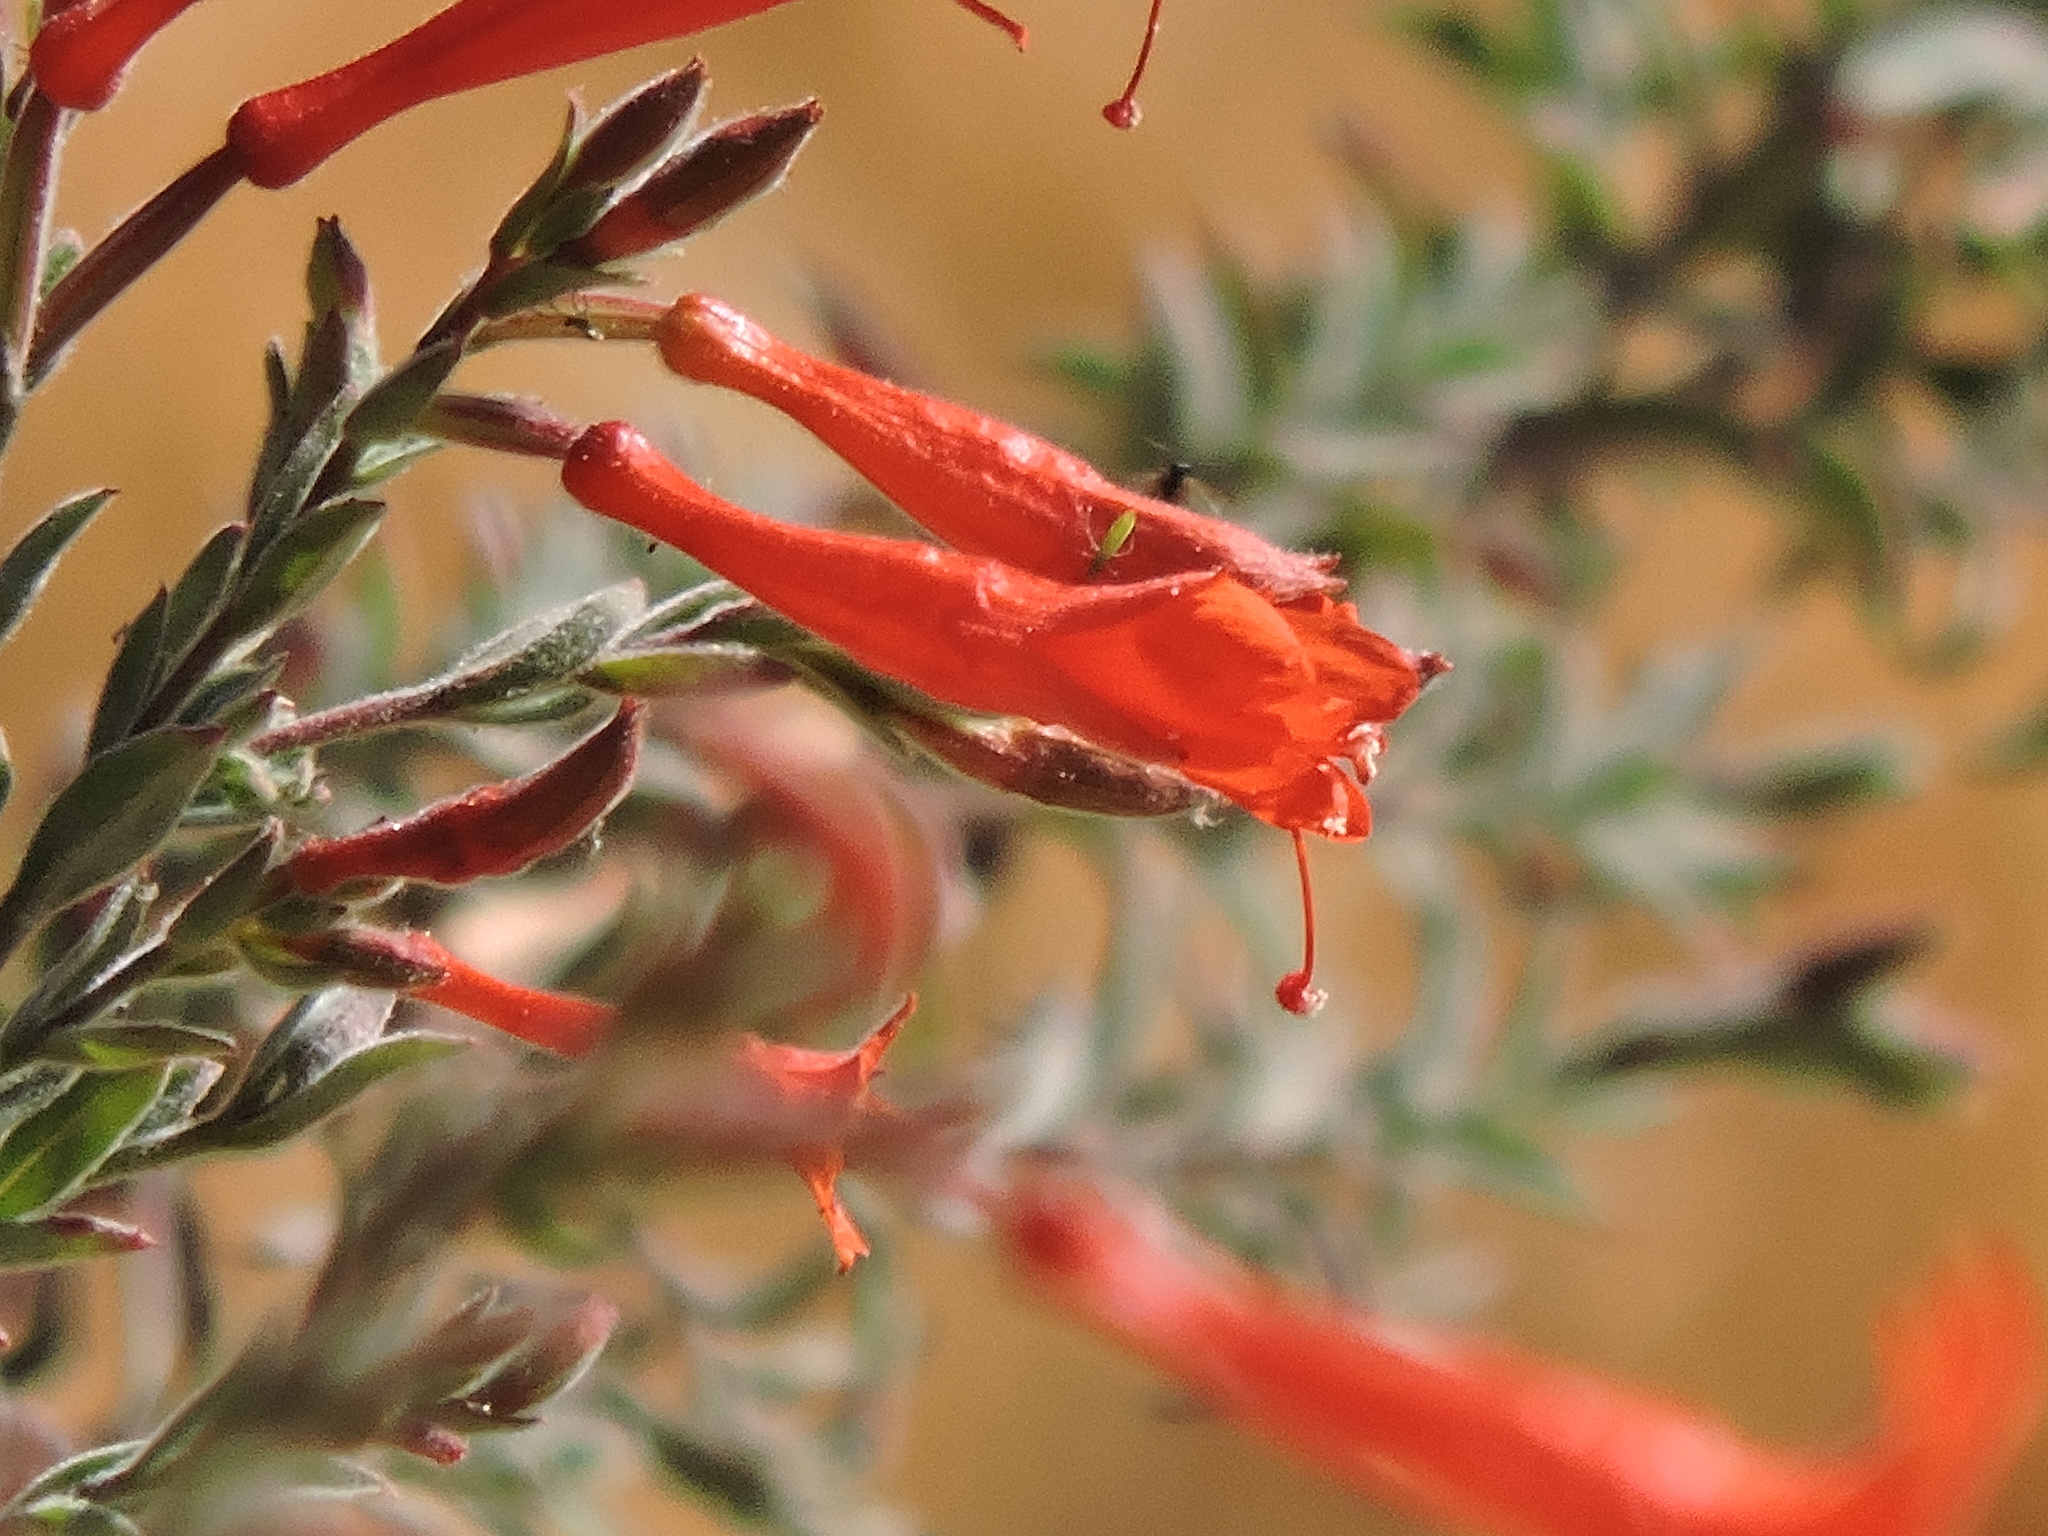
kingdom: Plantae
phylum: Tracheophyta
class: Magnoliopsida
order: Myrtales
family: Onagraceae
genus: Epilobium
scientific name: Epilobium canum
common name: California-fuchsia
